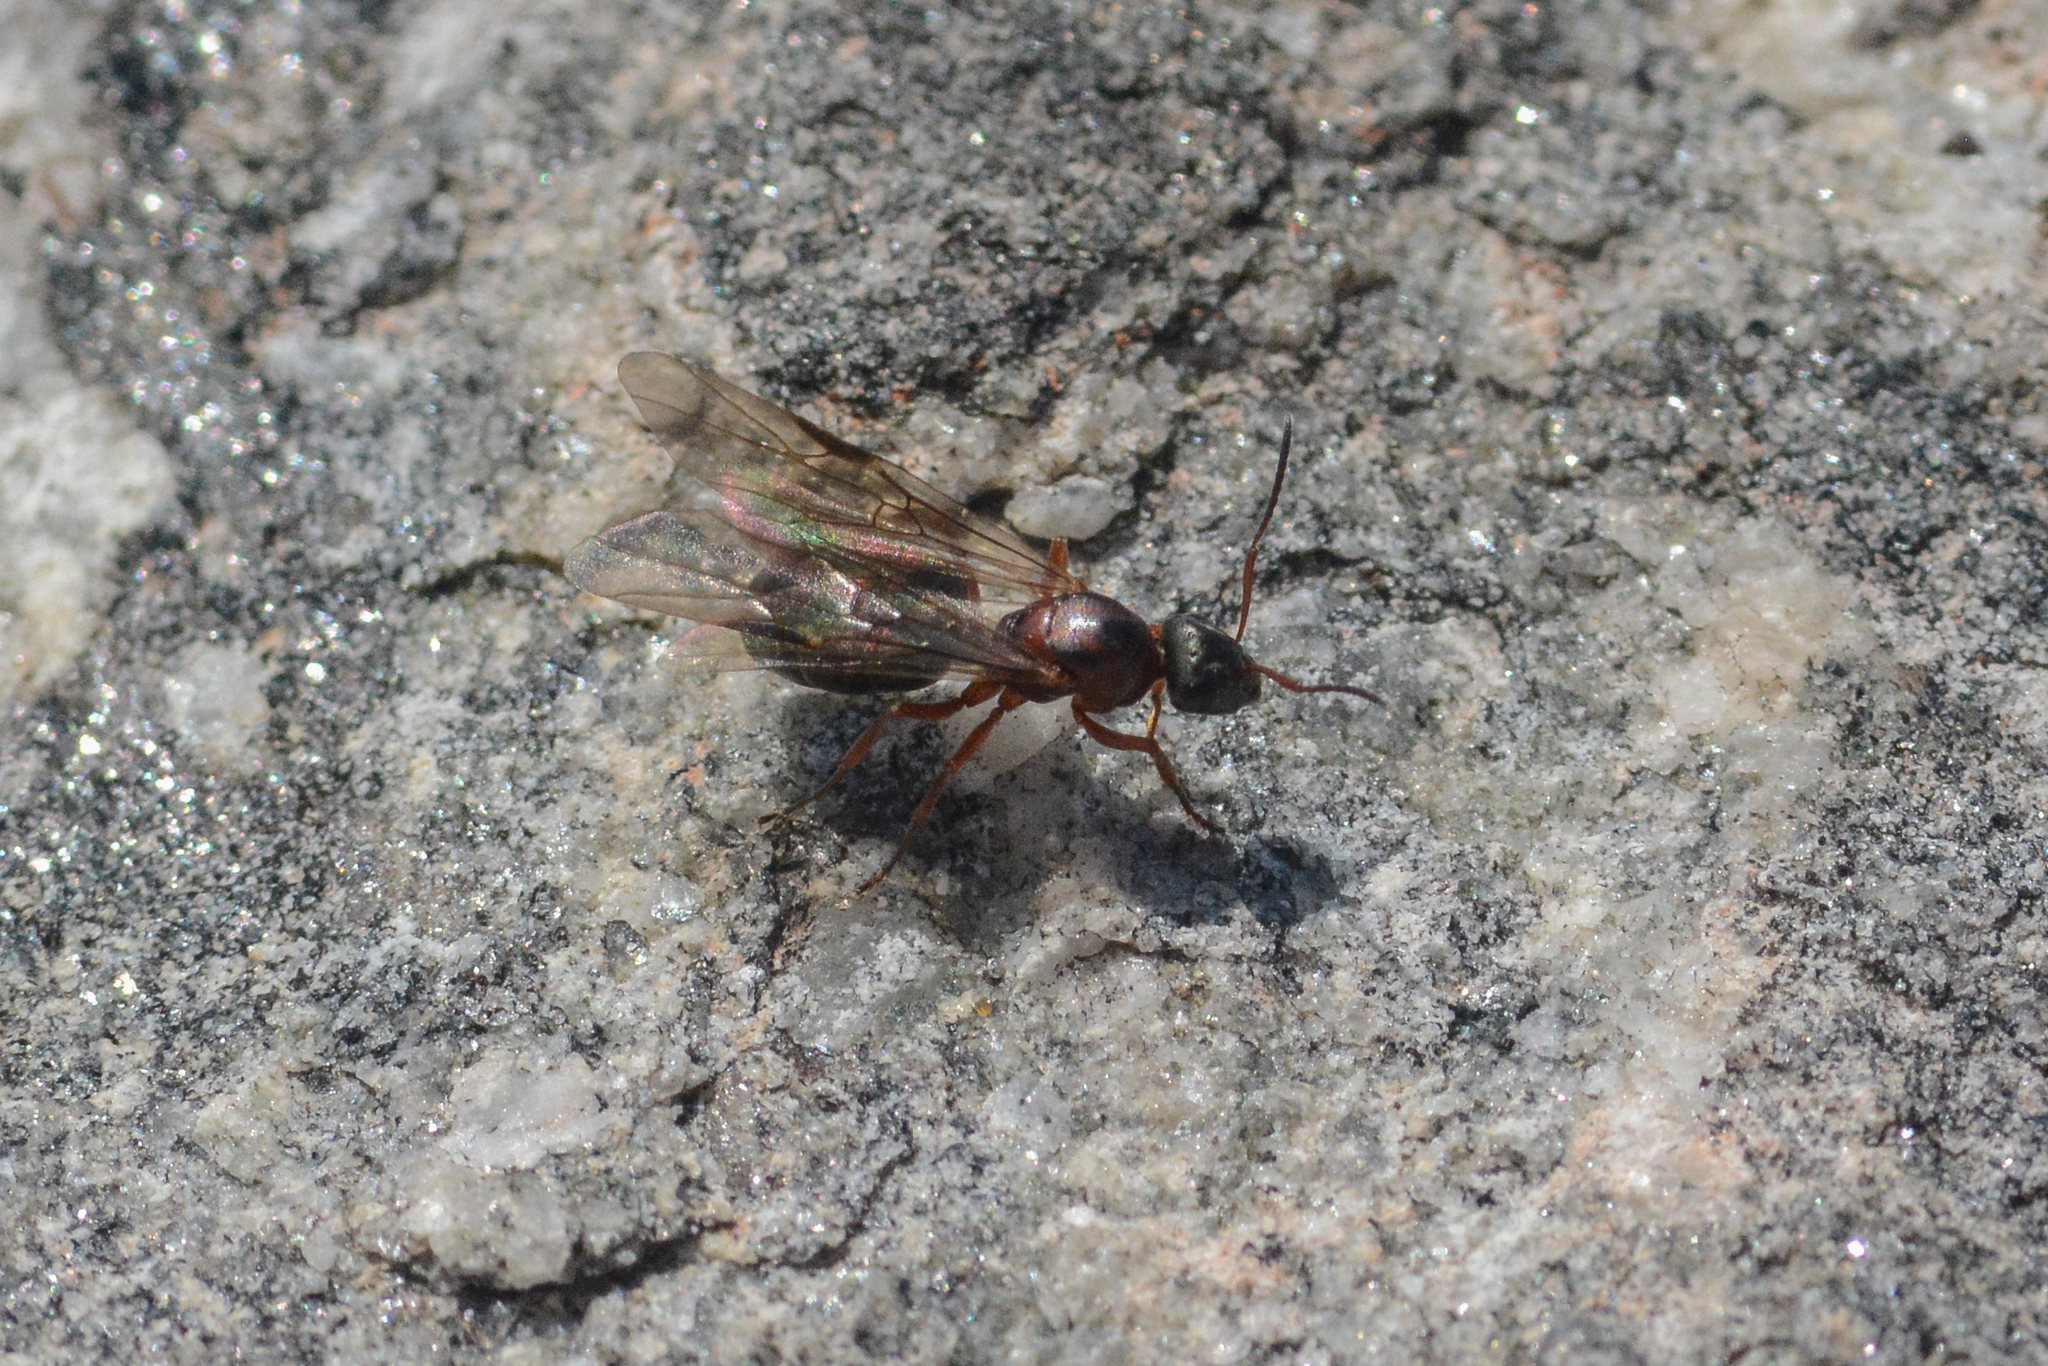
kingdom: Animalia
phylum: Arthropoda
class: Insecta
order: Hymenoptera
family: Formicidae
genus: Formica
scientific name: Formica neorufibarbis
